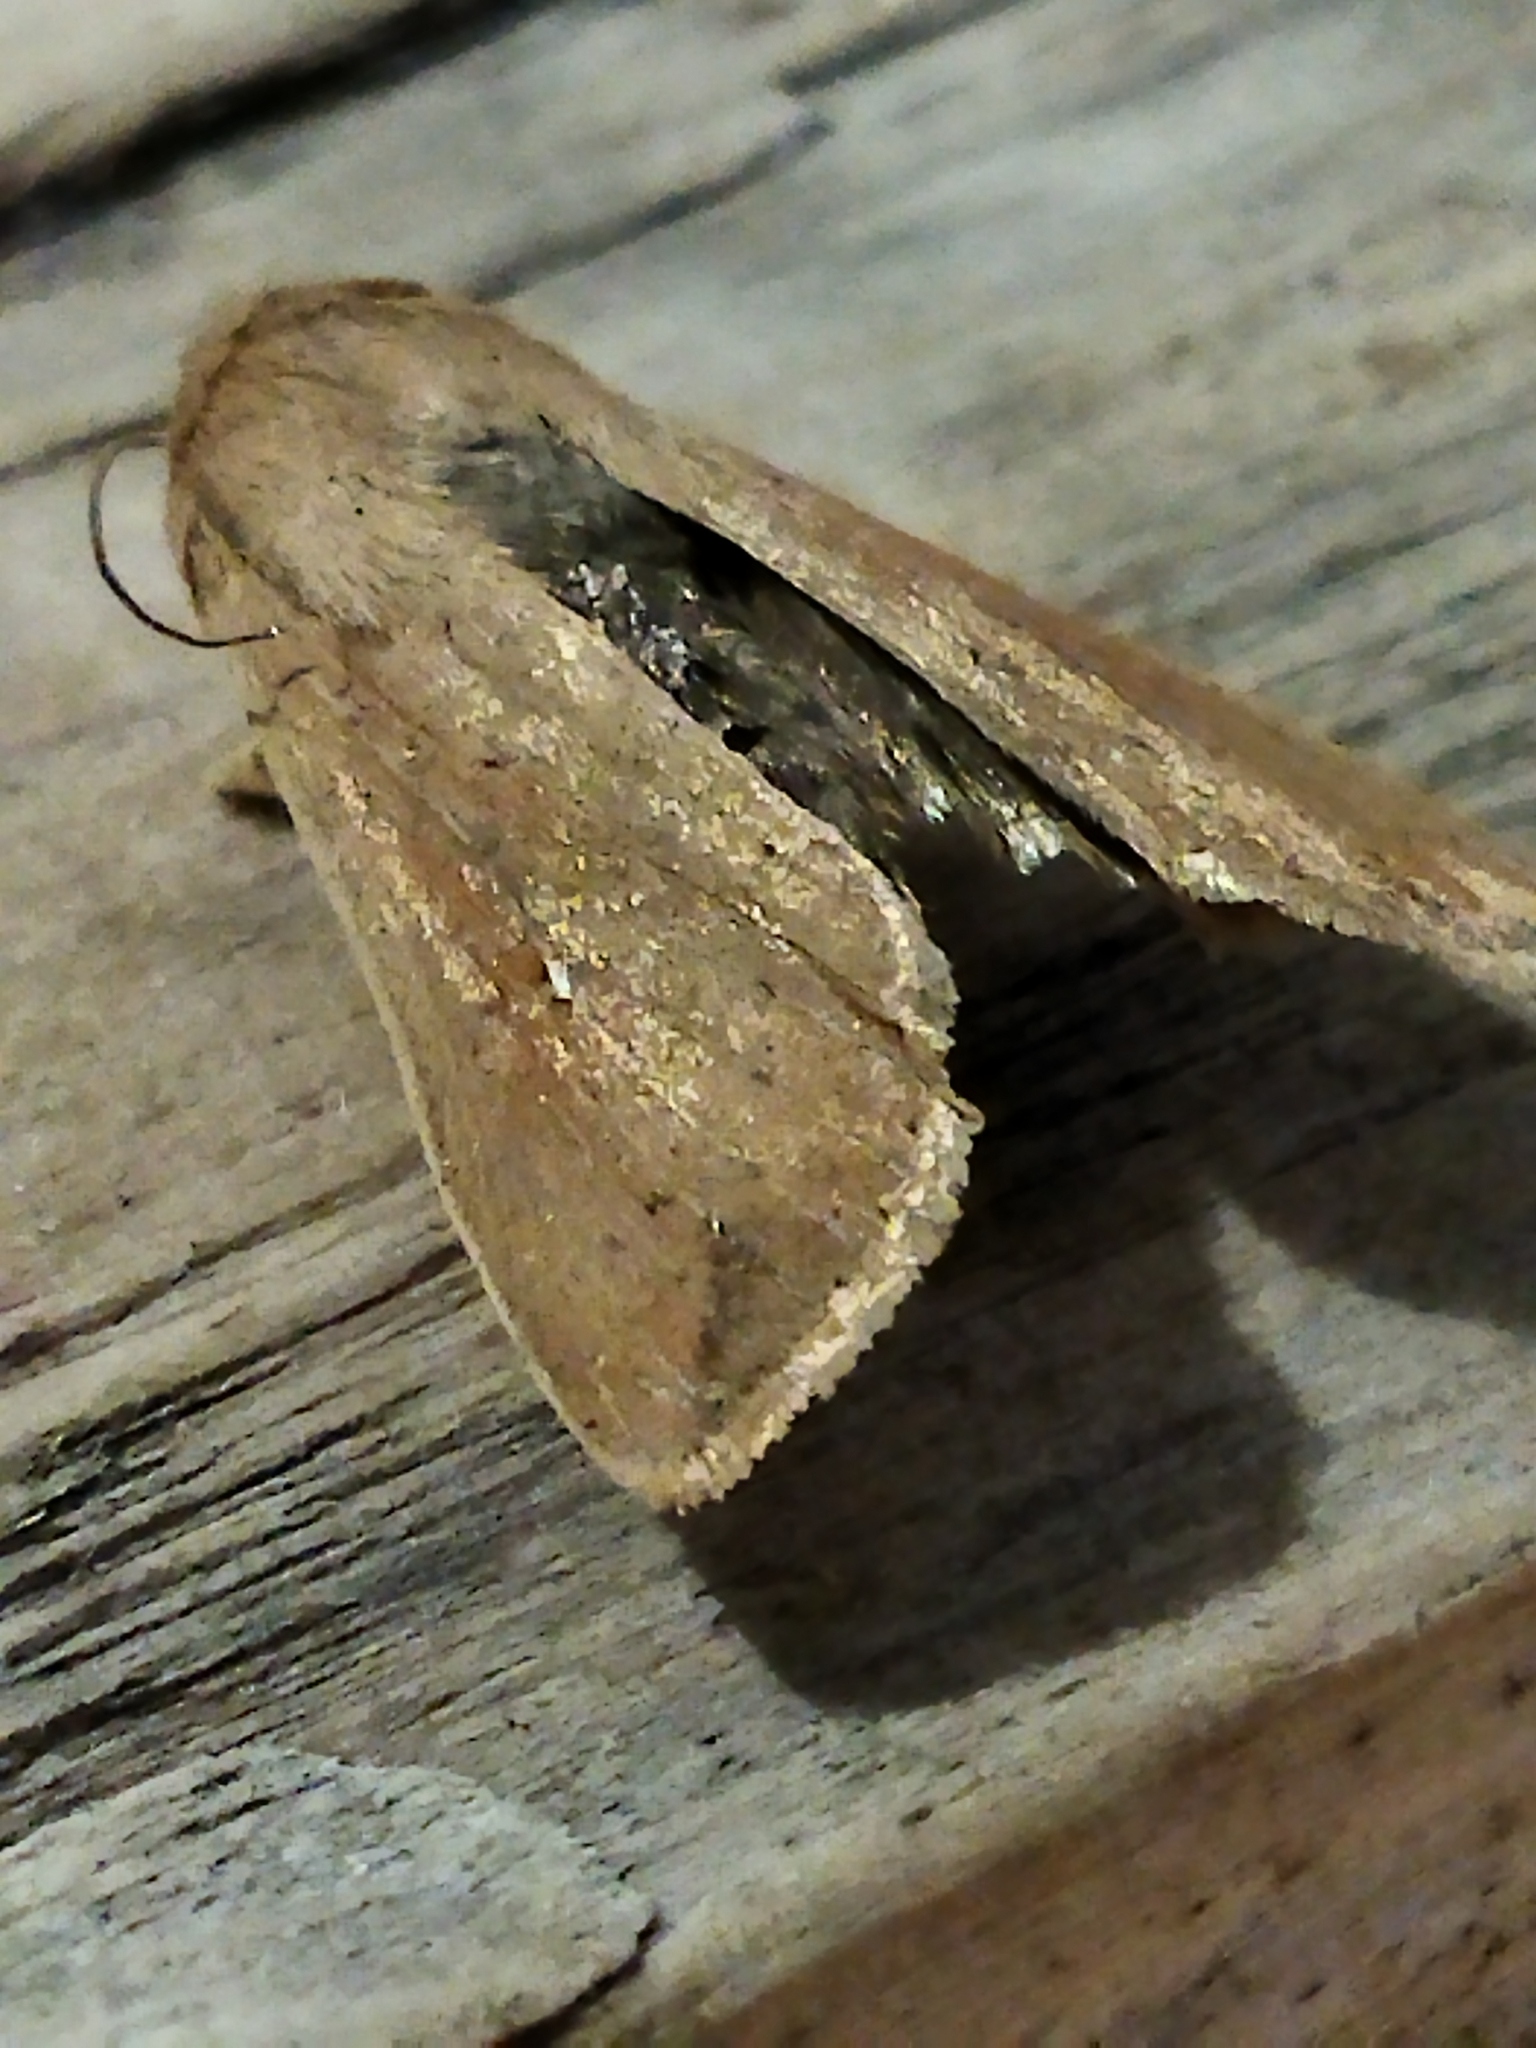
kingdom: Animalia
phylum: Arthropoda
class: Insecta
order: Lepidoptera
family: Noctuidae
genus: Mythimna
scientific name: Mythimna unipuncta
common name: White-speck
